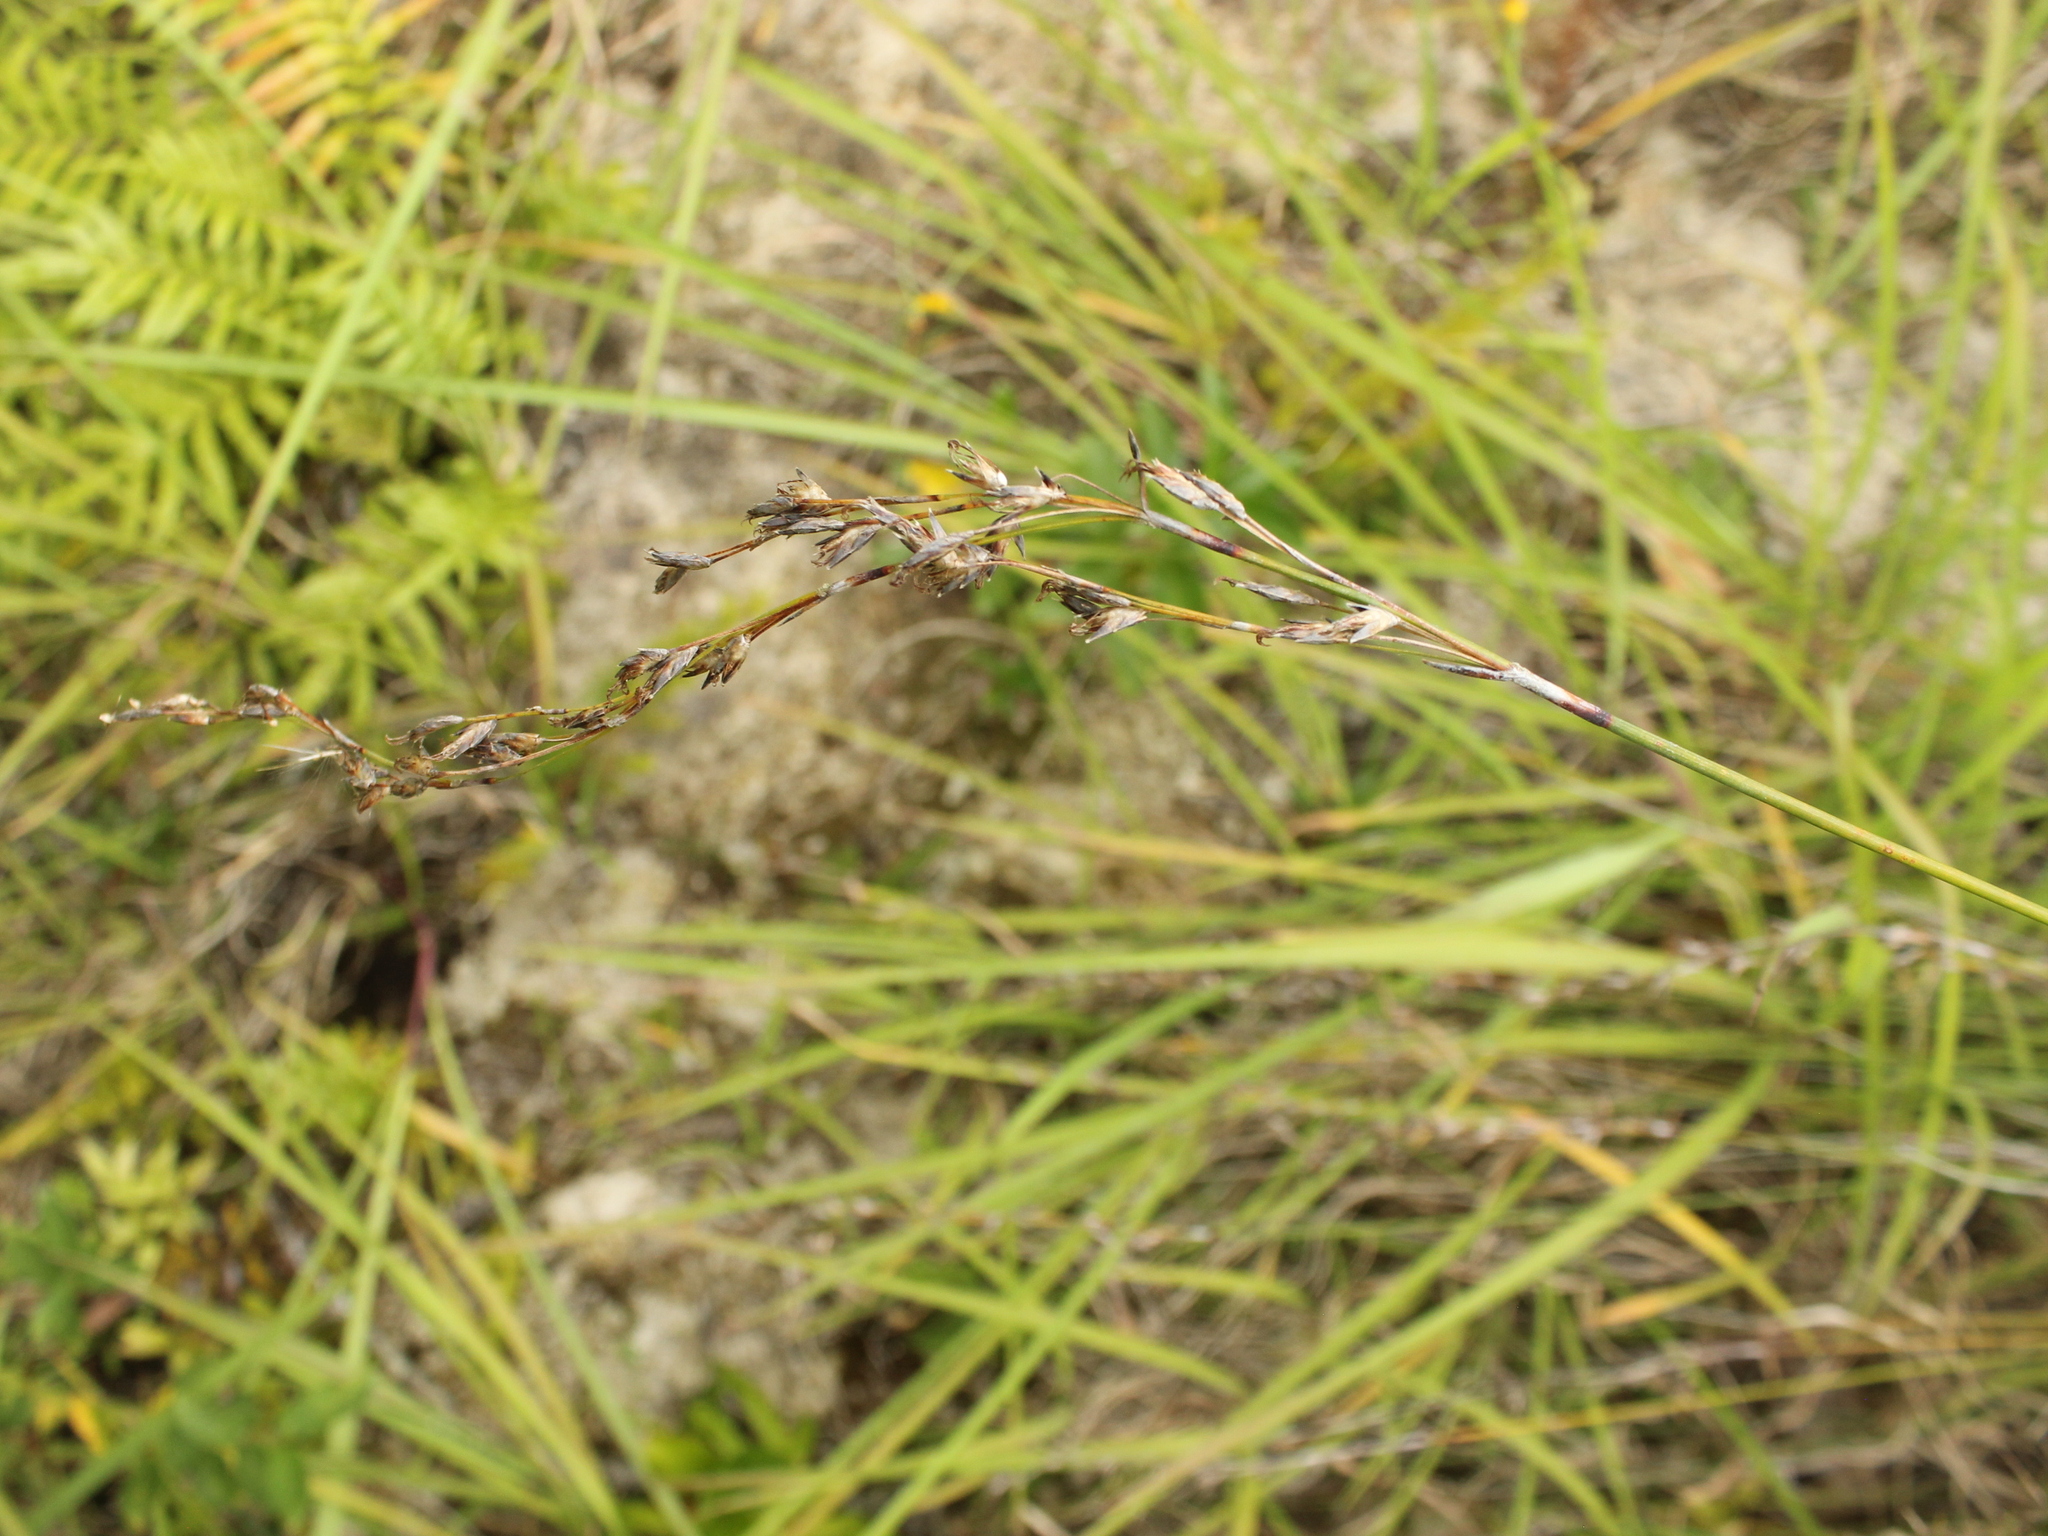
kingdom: Plantae
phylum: Tracheophyta
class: Liliopsida
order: Poales
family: Cyperaceae
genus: Machaerina
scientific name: Machaerina tenax
